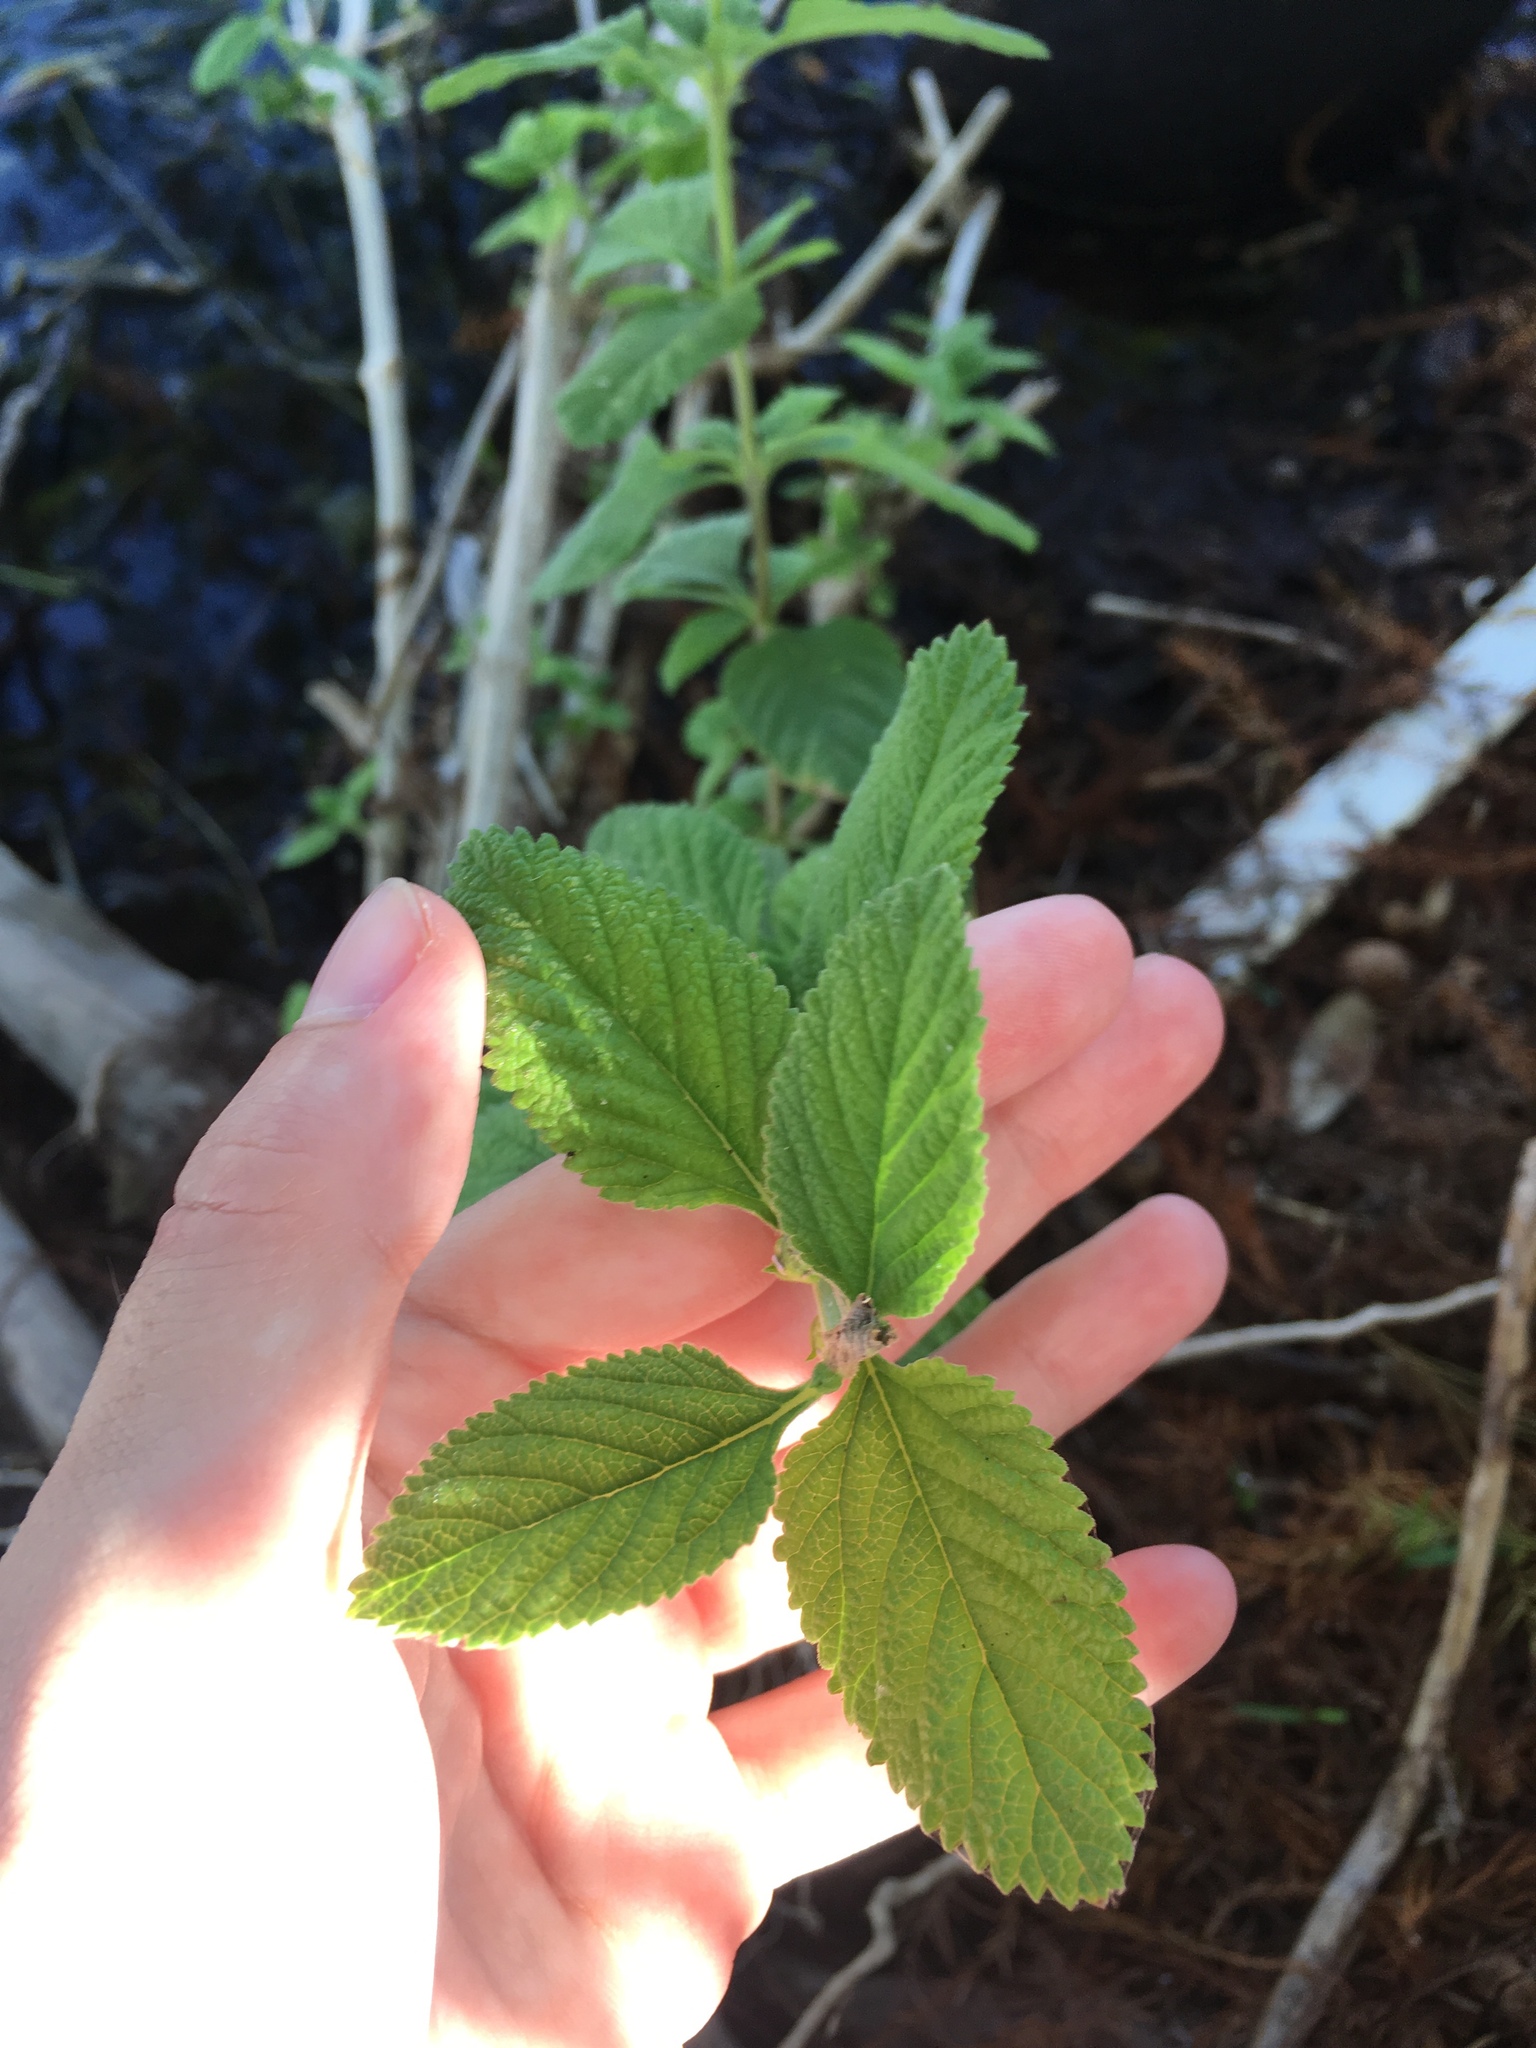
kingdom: Plantae
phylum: Tracheophyta
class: Magnoliopsida
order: Lamiales
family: Verbenaceae
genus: Lippia
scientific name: Lippia alba
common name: Bushy matgrass
